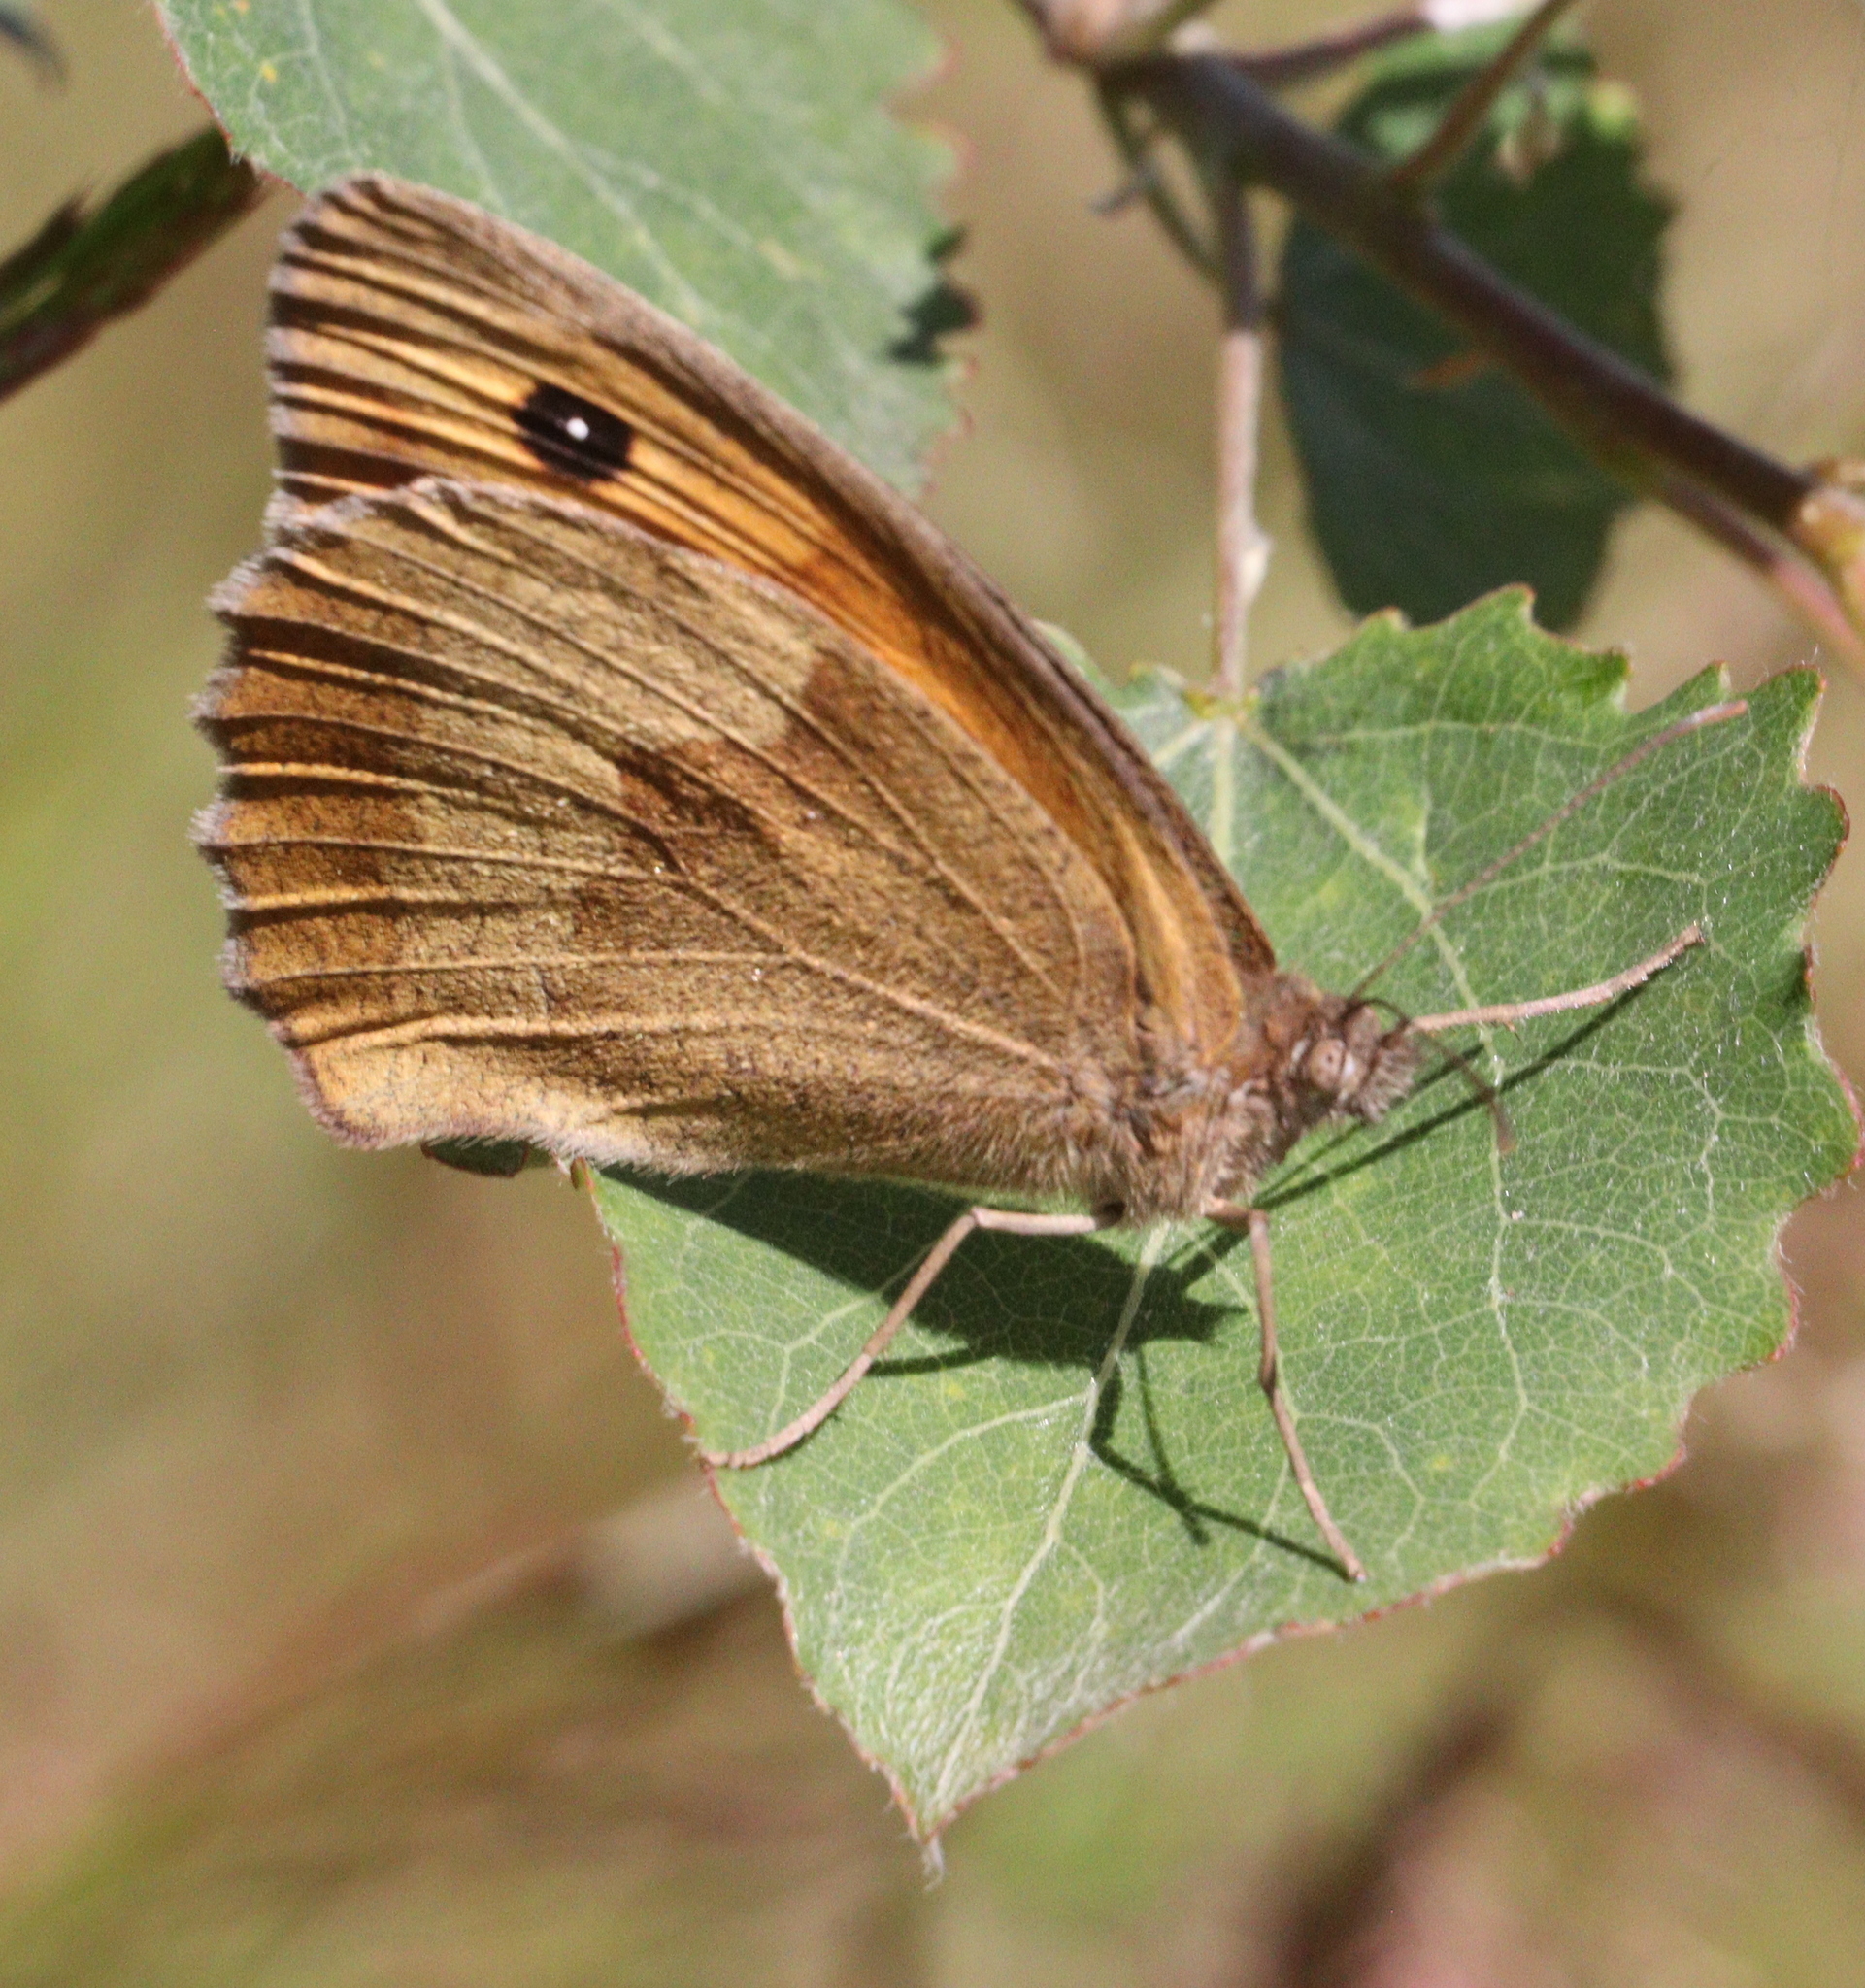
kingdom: Animalia
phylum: Arthropoda
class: Insecta
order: Lepidoptera
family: Nymphalidae
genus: Maniola
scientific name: Maniola jurtina
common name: Meadow brown
